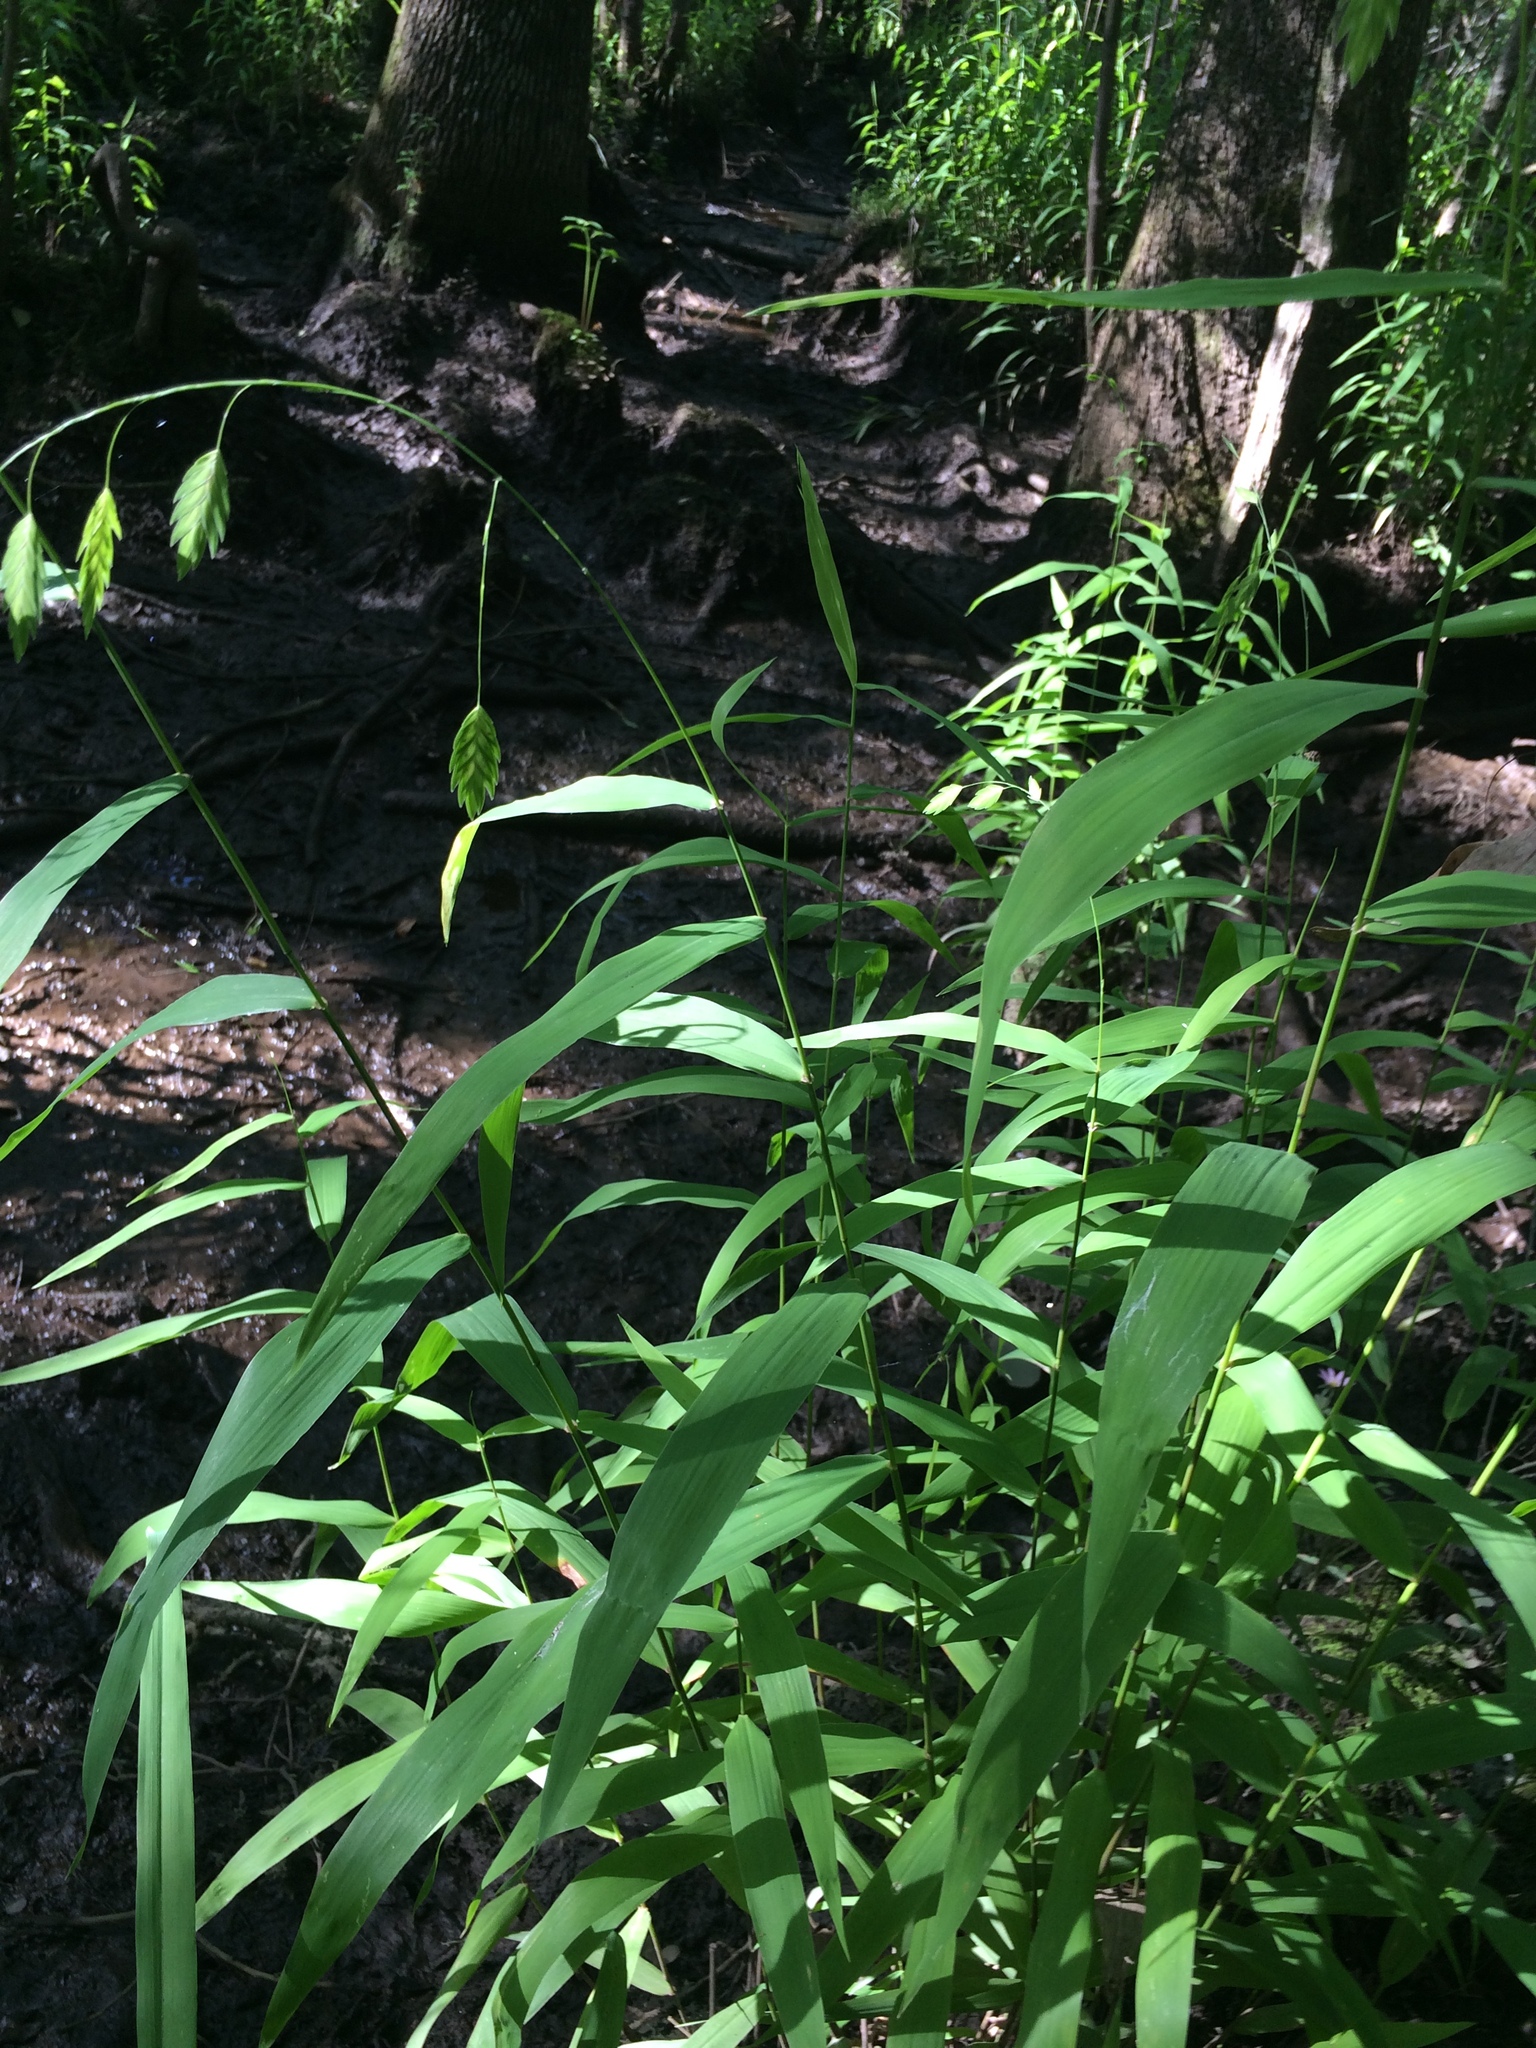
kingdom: Plantae
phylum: Tracheophyta
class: Liliopsida
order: Poales
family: Poaceae
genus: Chasmanthium
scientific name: Chasmanthium latifolium
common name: Broad-leaved chasmanthium
